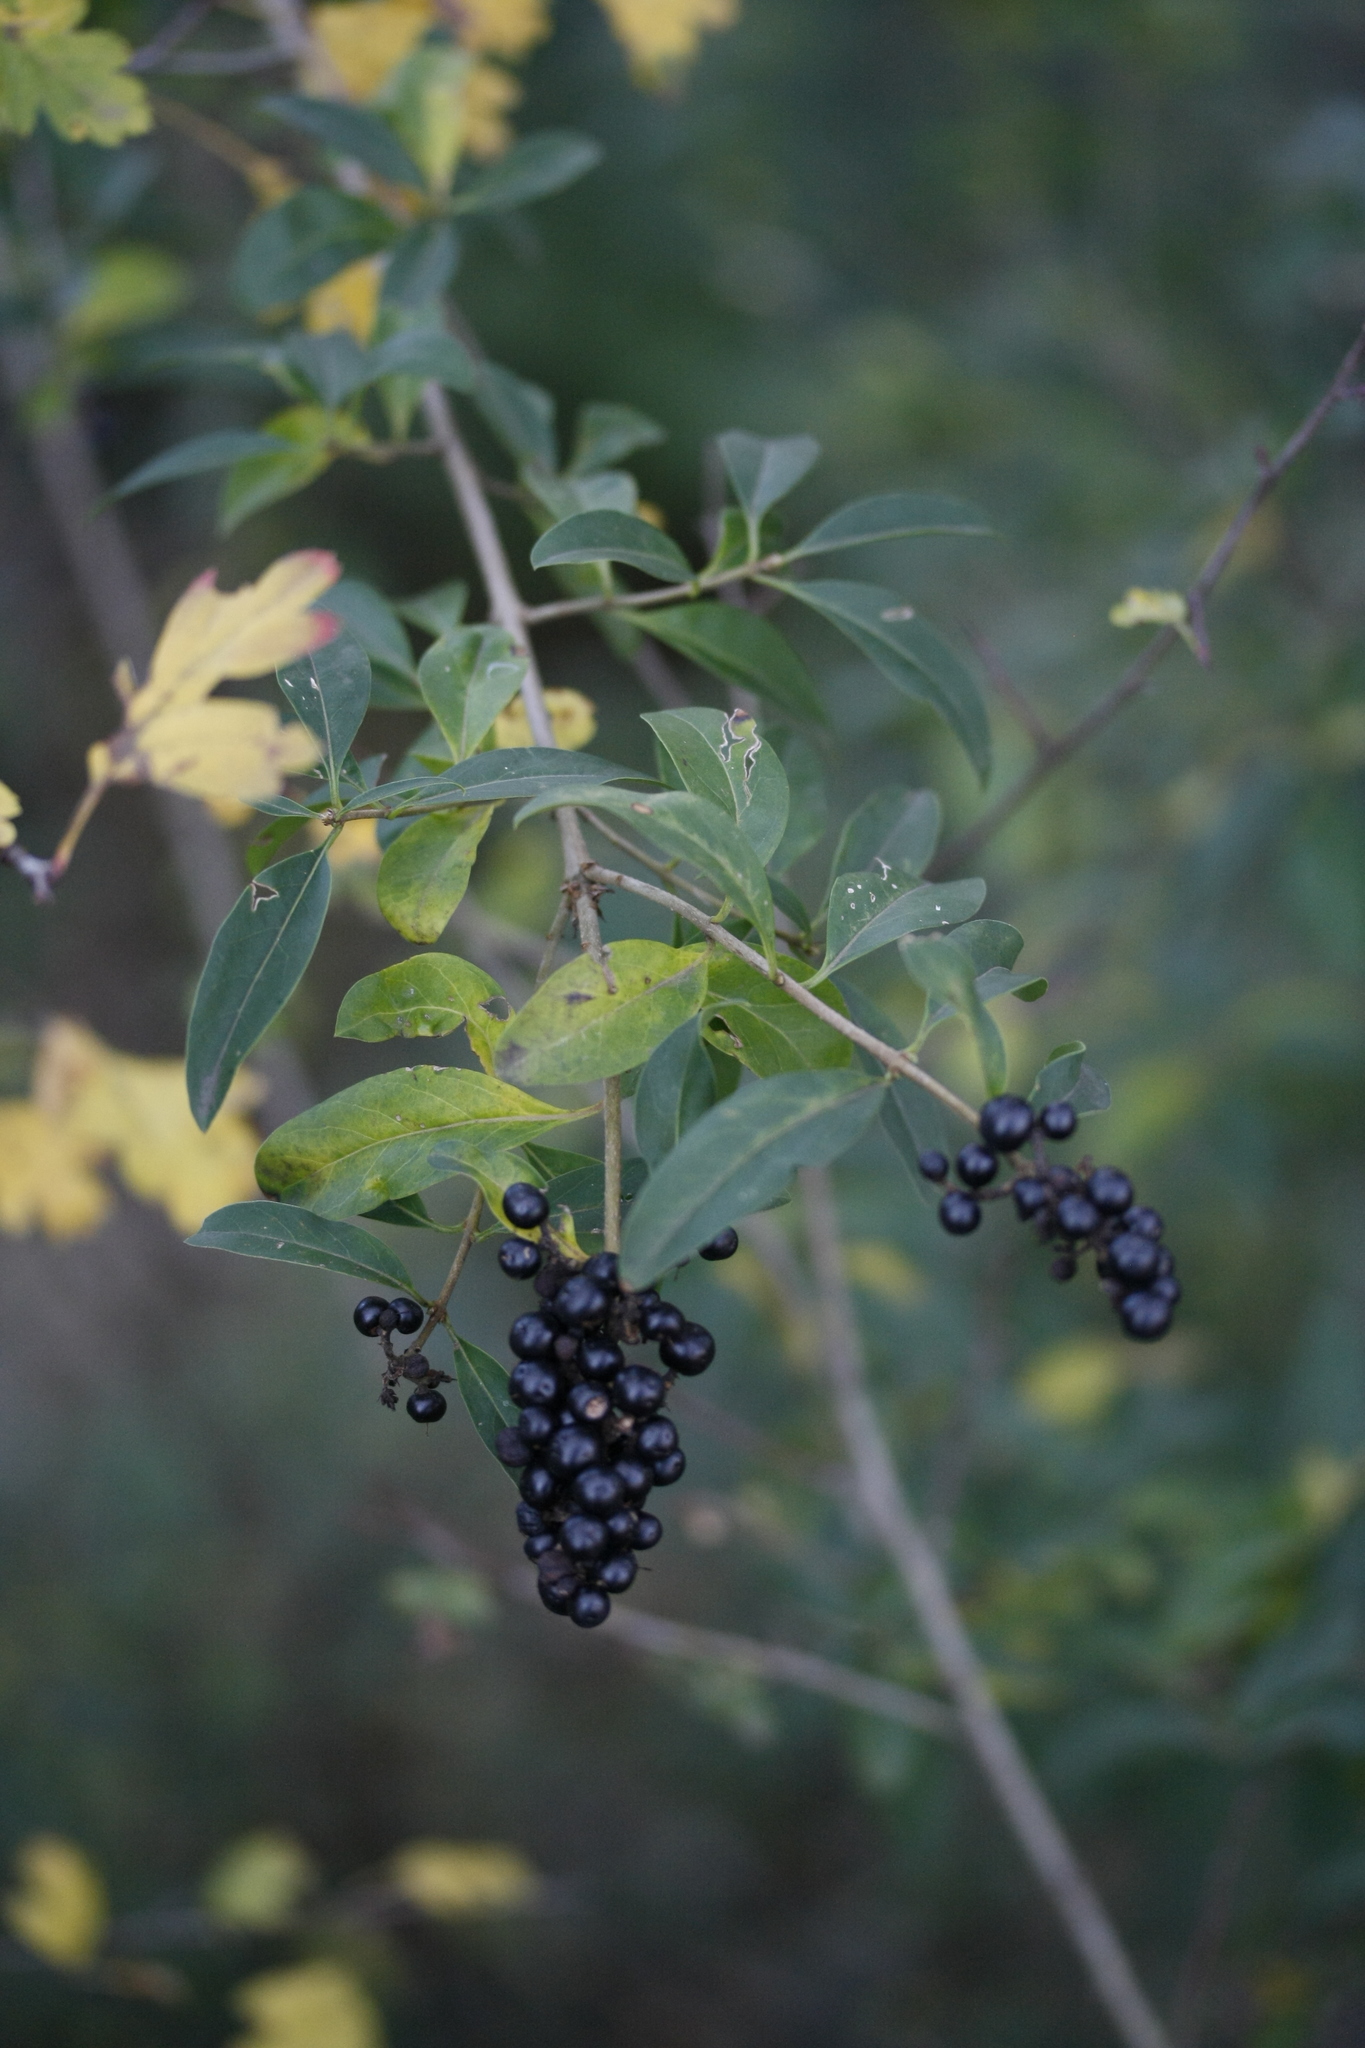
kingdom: Plantae
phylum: Tracheophyta
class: Magnoliopsida
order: Lamiales
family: Oleaceae
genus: Ligustrum
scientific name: Ligustrum vulgare
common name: Wild privet
